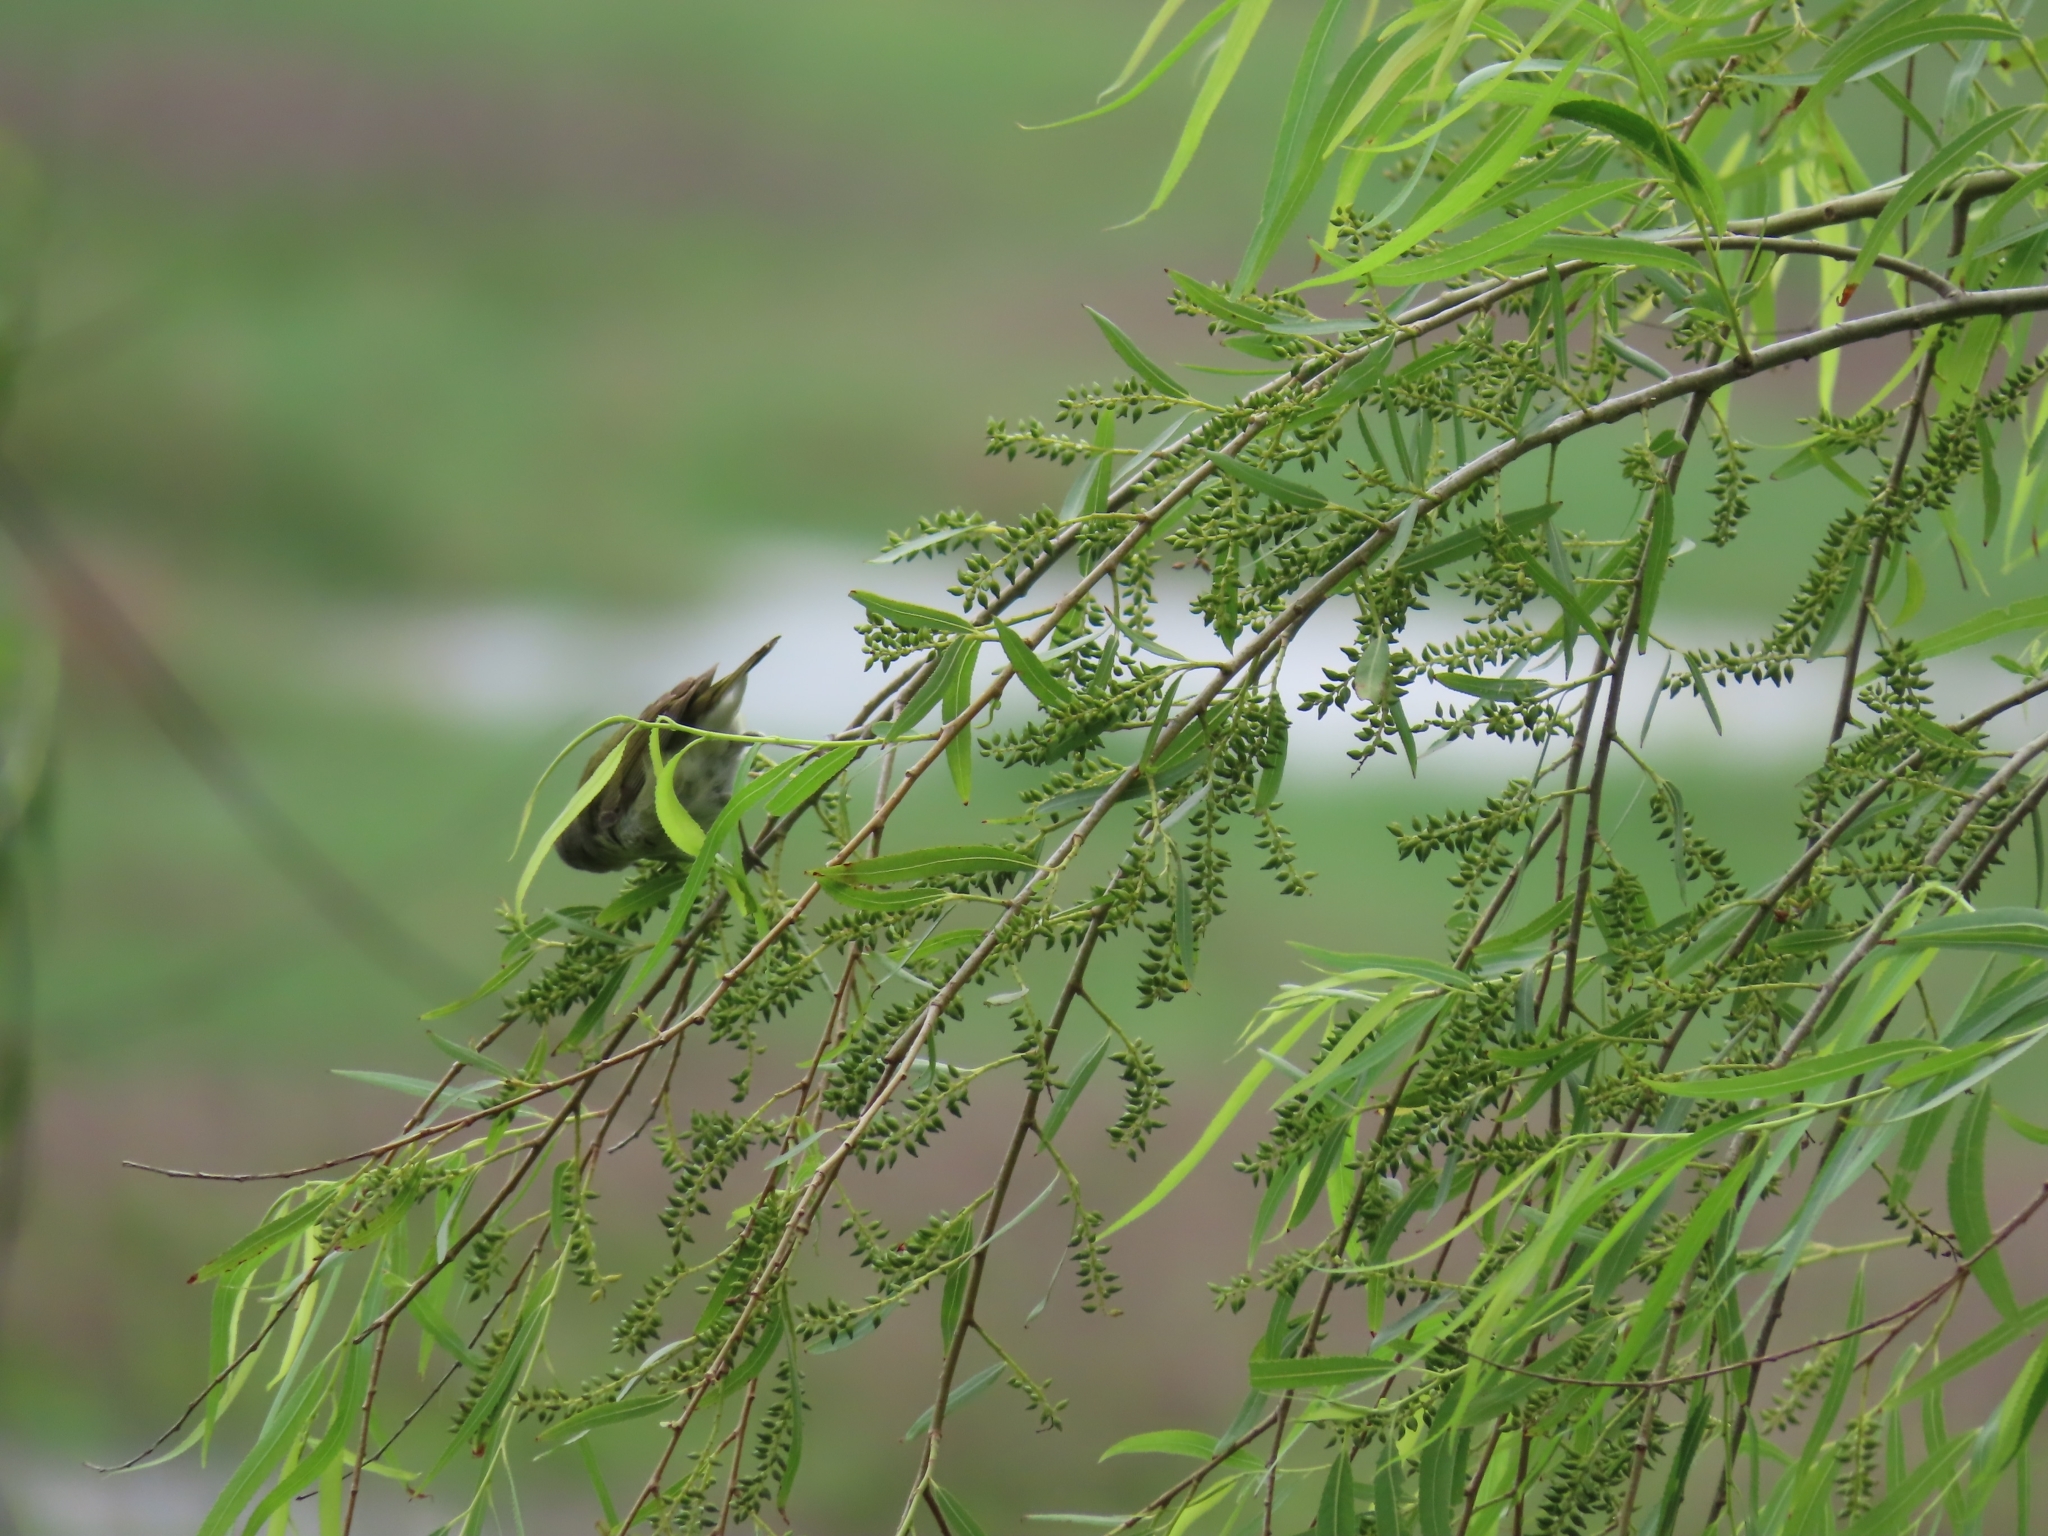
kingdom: Animalia
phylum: Chordata
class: Aves
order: Passeriformes
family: Parulidae
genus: Leiothlypis
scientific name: Leiothlypis peregrina
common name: Tennessee warbler
